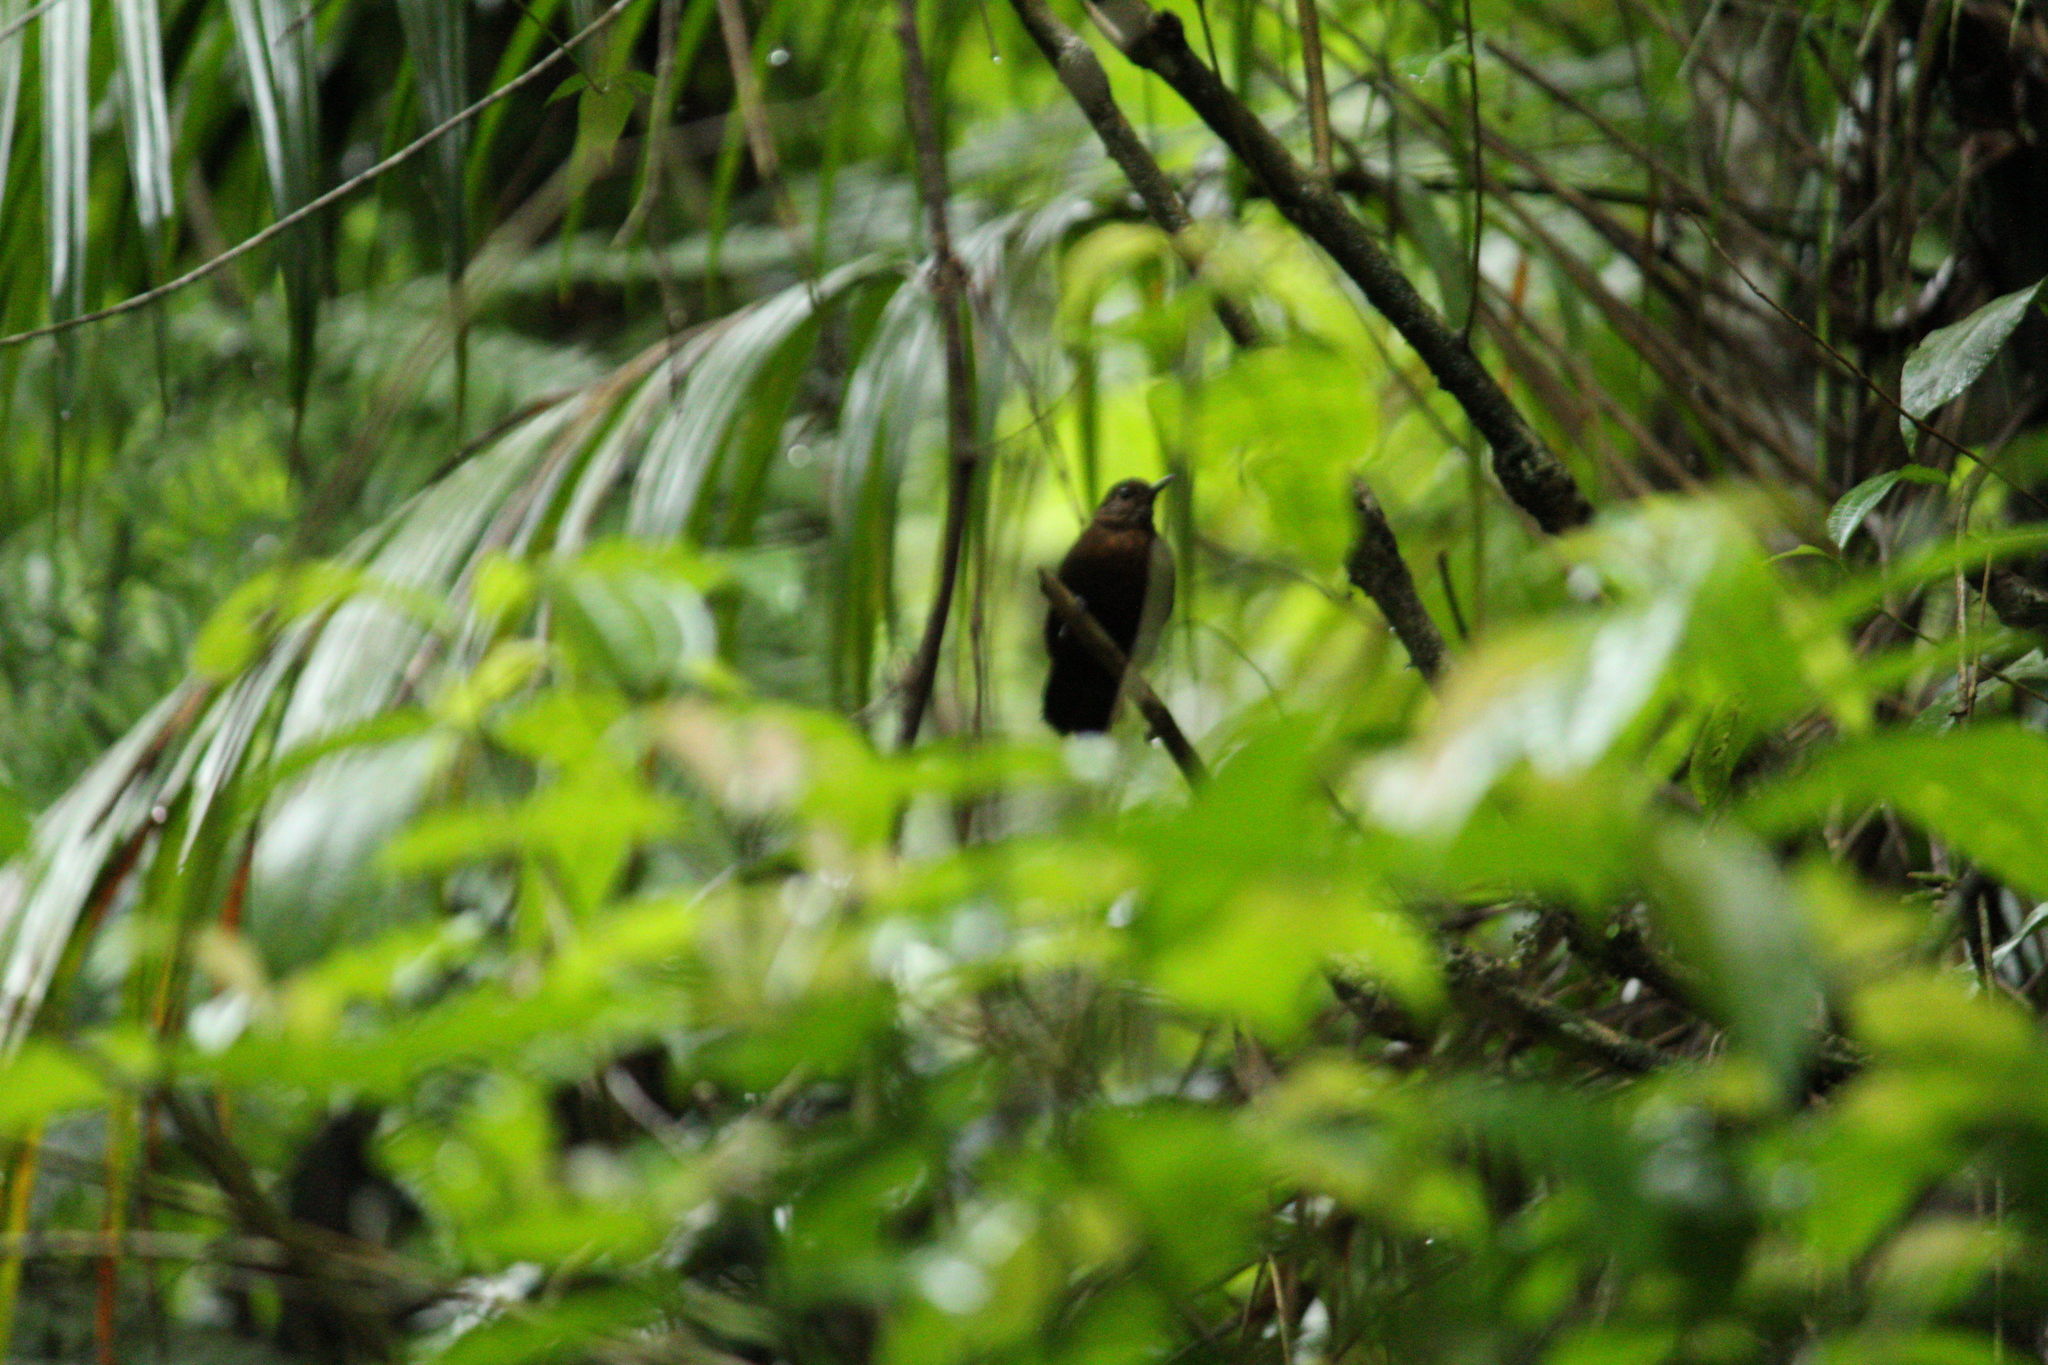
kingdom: Animalia
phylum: Chordata
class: Aves
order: Passeriformes
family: Furnariidae
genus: Sclerurus
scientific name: Sclerurus scansor
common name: Rufous-breasted leaftosser
